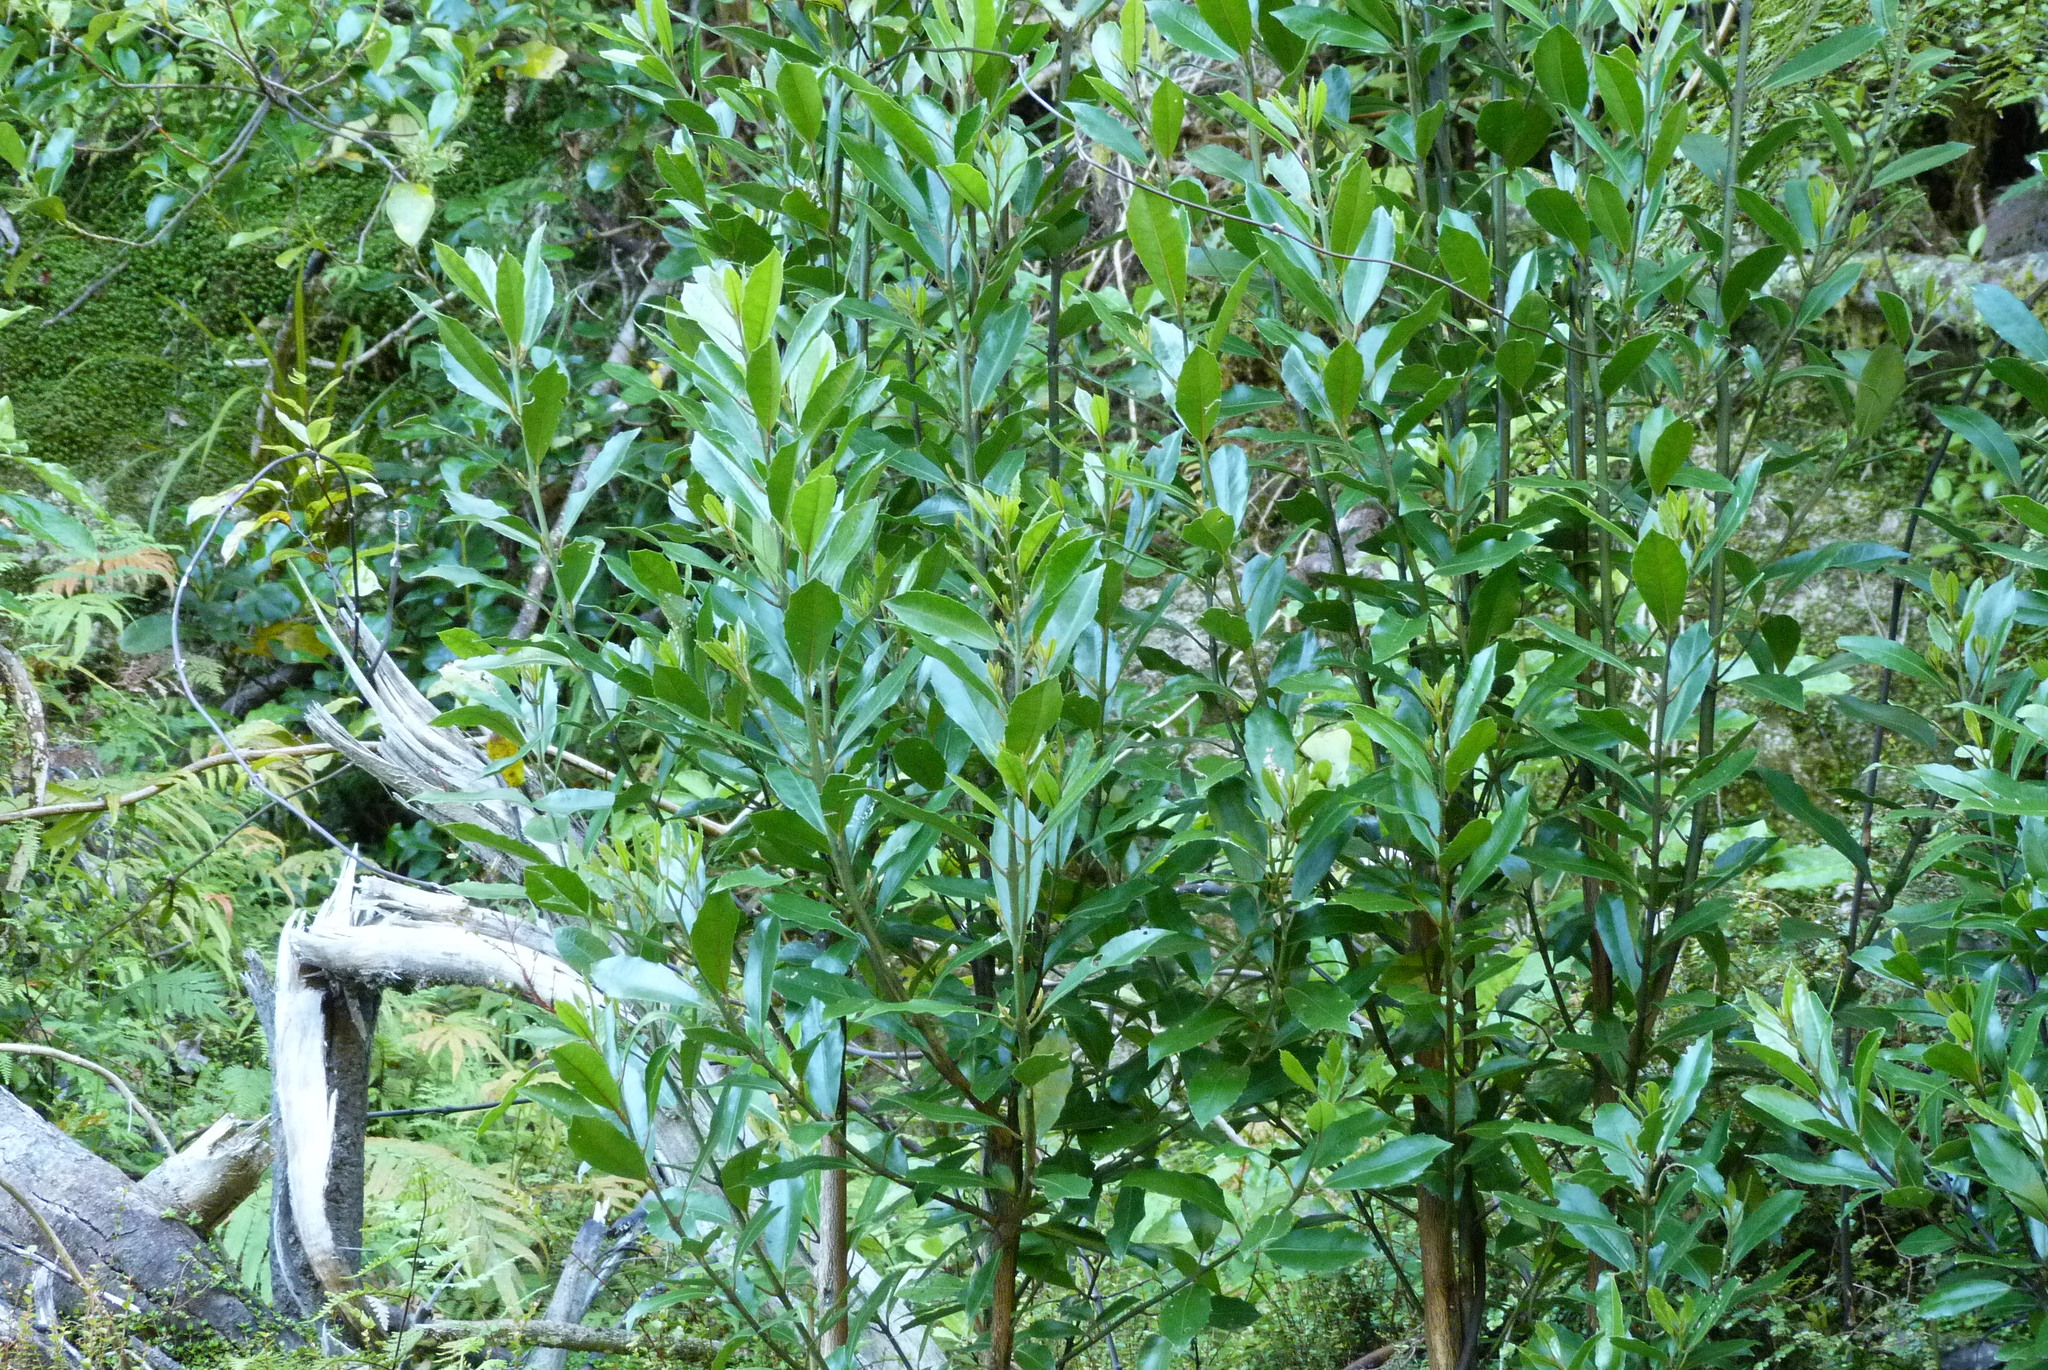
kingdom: Plantae
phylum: Tracheophyta
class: Magnoliopsida
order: Laurales
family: Monimiaceae
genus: Hedycarya
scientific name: Hedycarya arborea
